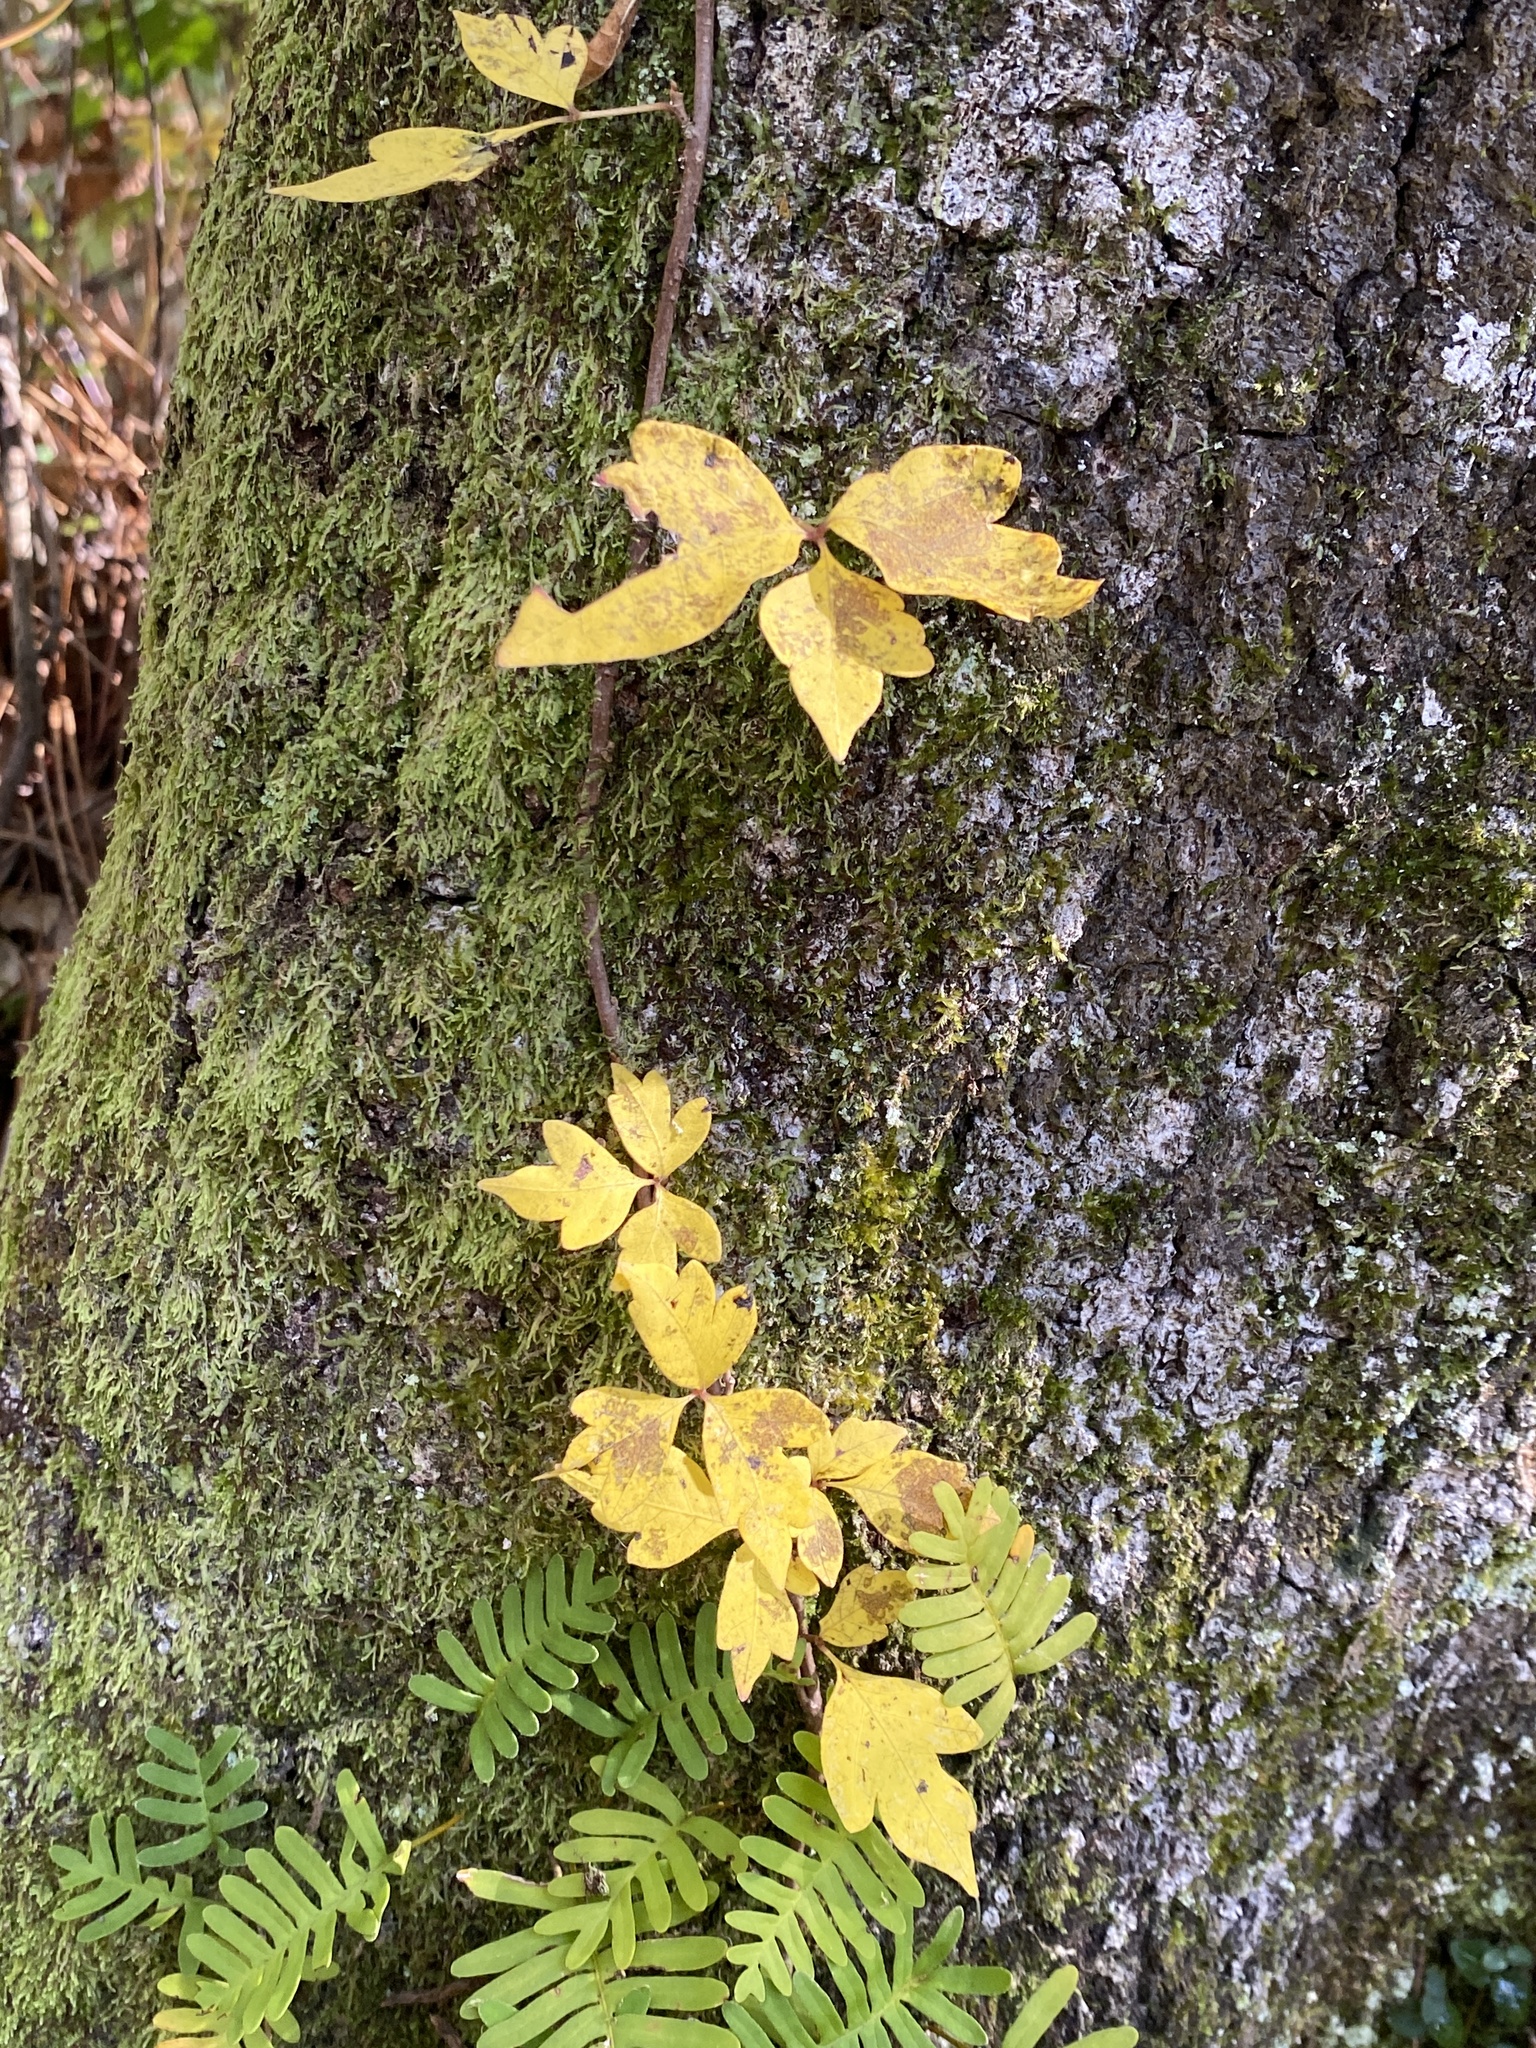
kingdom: Plantae
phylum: Tracheophyta
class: Magnoliopsida
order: Sapindales
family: Anacardiaceae
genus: Toxicodendron
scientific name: Toxicodendron radicans
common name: Poison ivy
